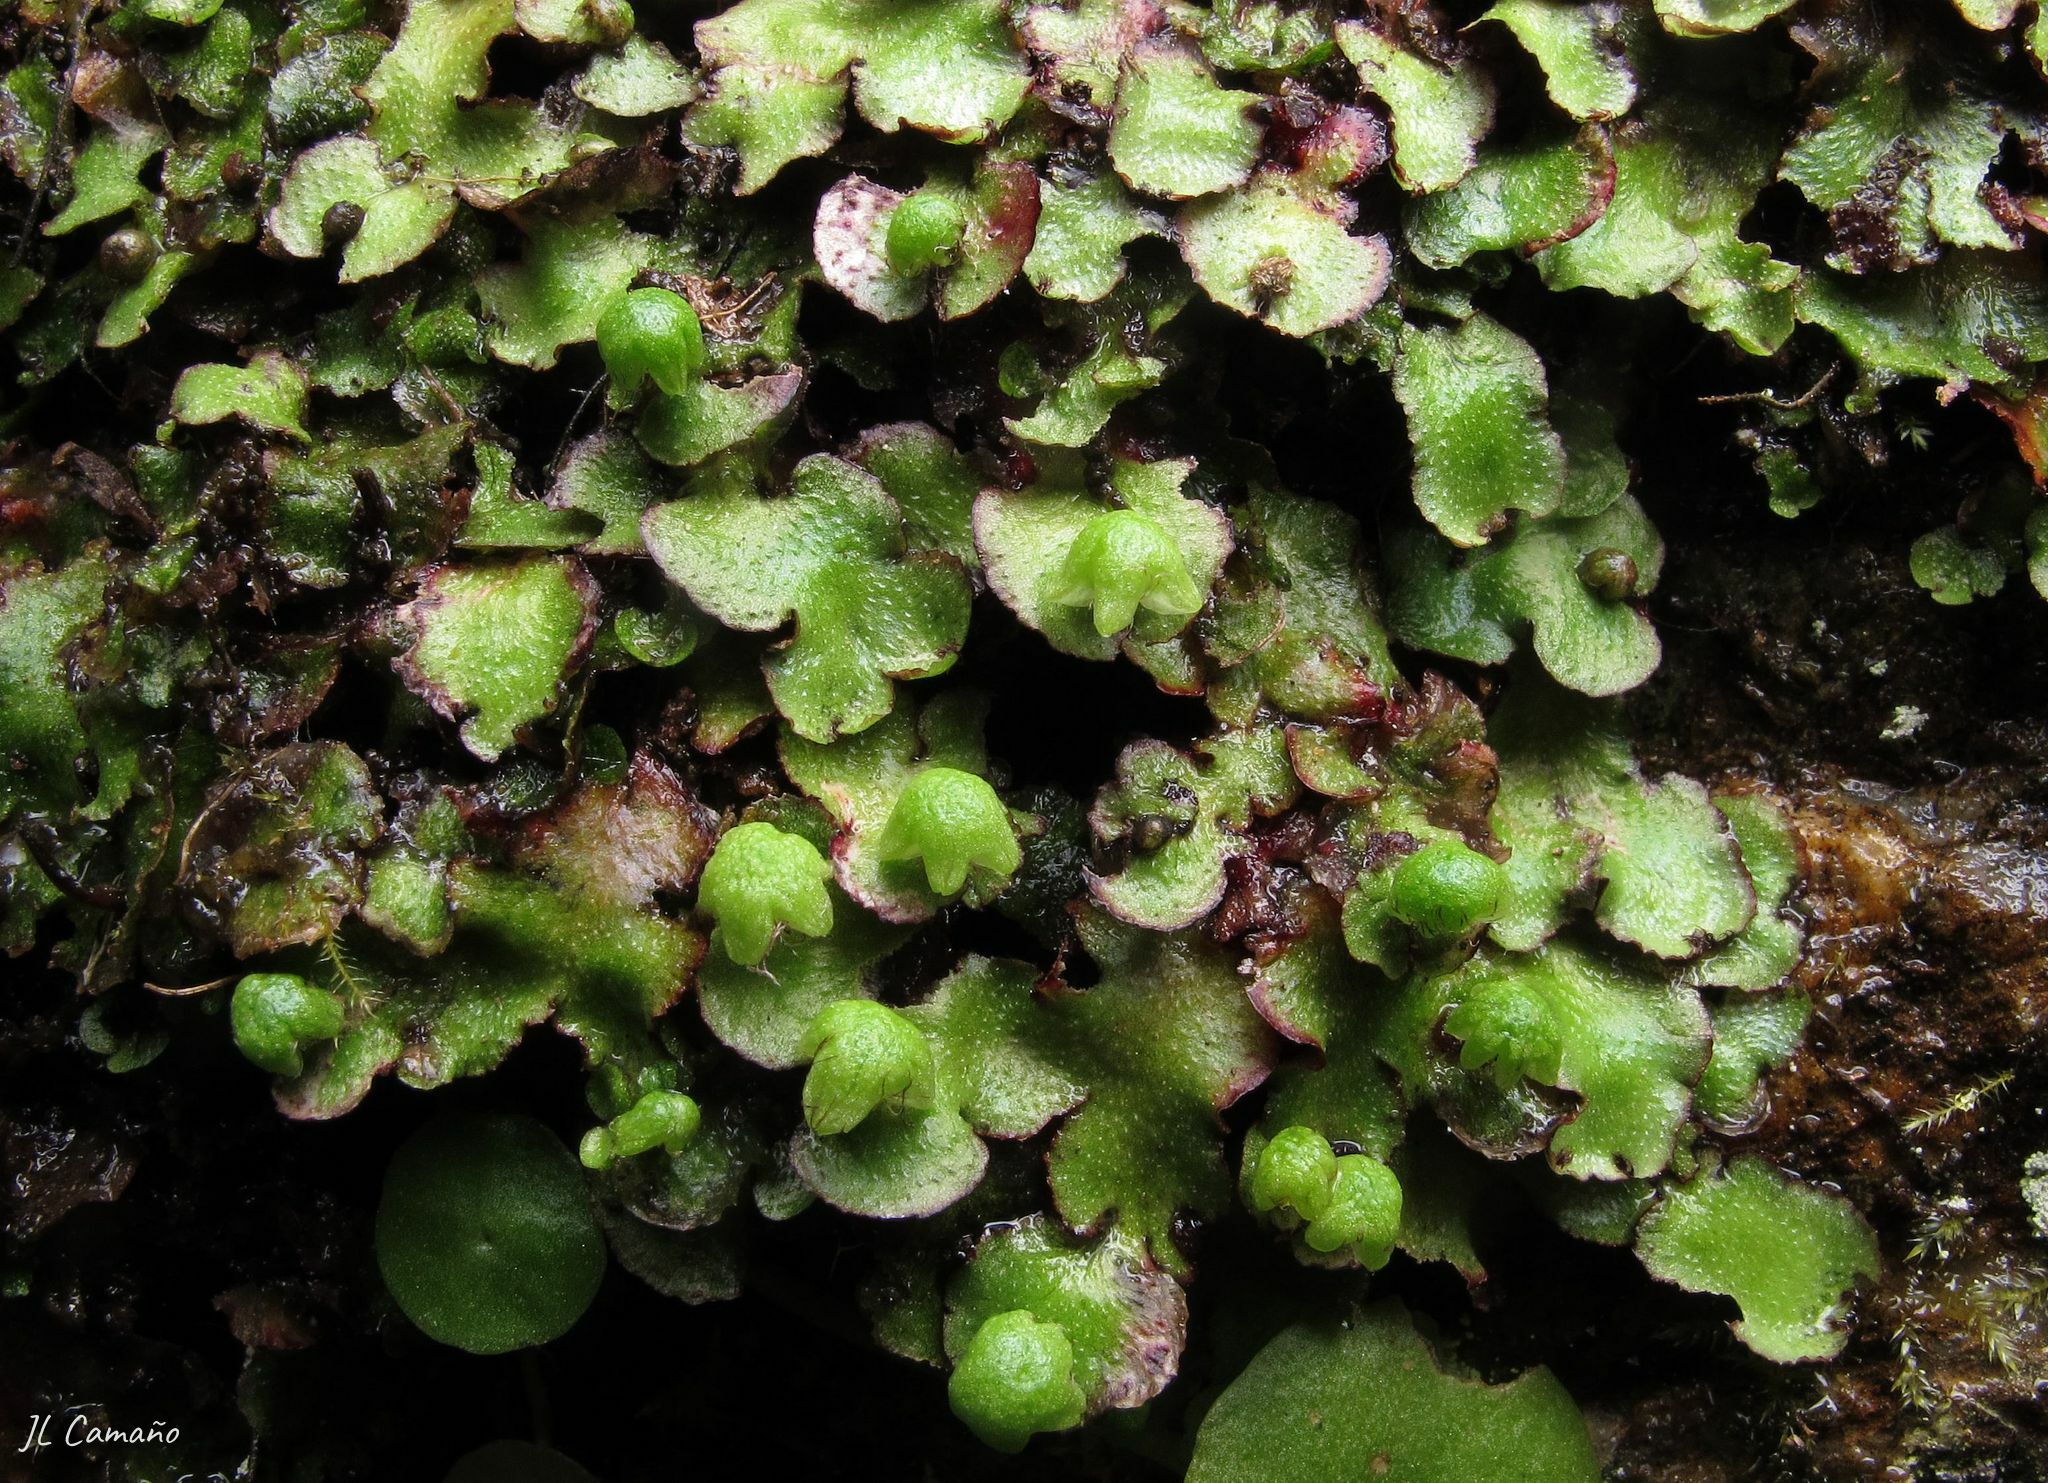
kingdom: Plantae
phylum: Marchantiophyta
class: Marchantiopsida
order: Marchantiales
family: Aytoniaceae
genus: Reboulia
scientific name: Reboulia hemisphaerica
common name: Purple-margined liverwort
